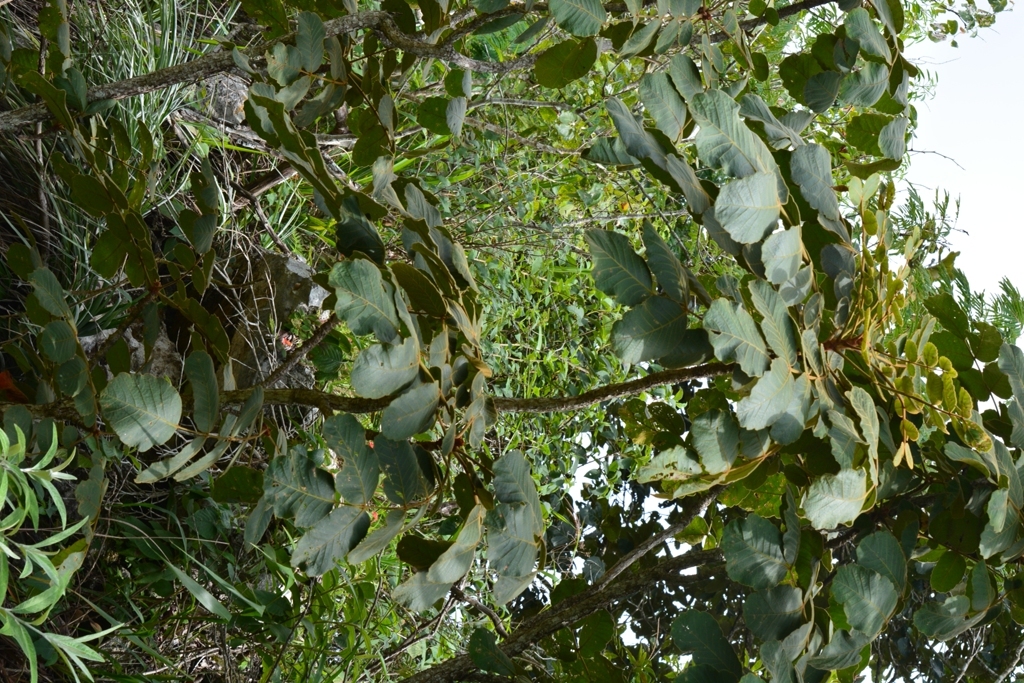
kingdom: Plantae
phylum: Tracheophyta
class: Magnoliopsida
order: Sapindales
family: Anacardiaceae
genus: Comocladia
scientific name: Comocladia guatemalensis
